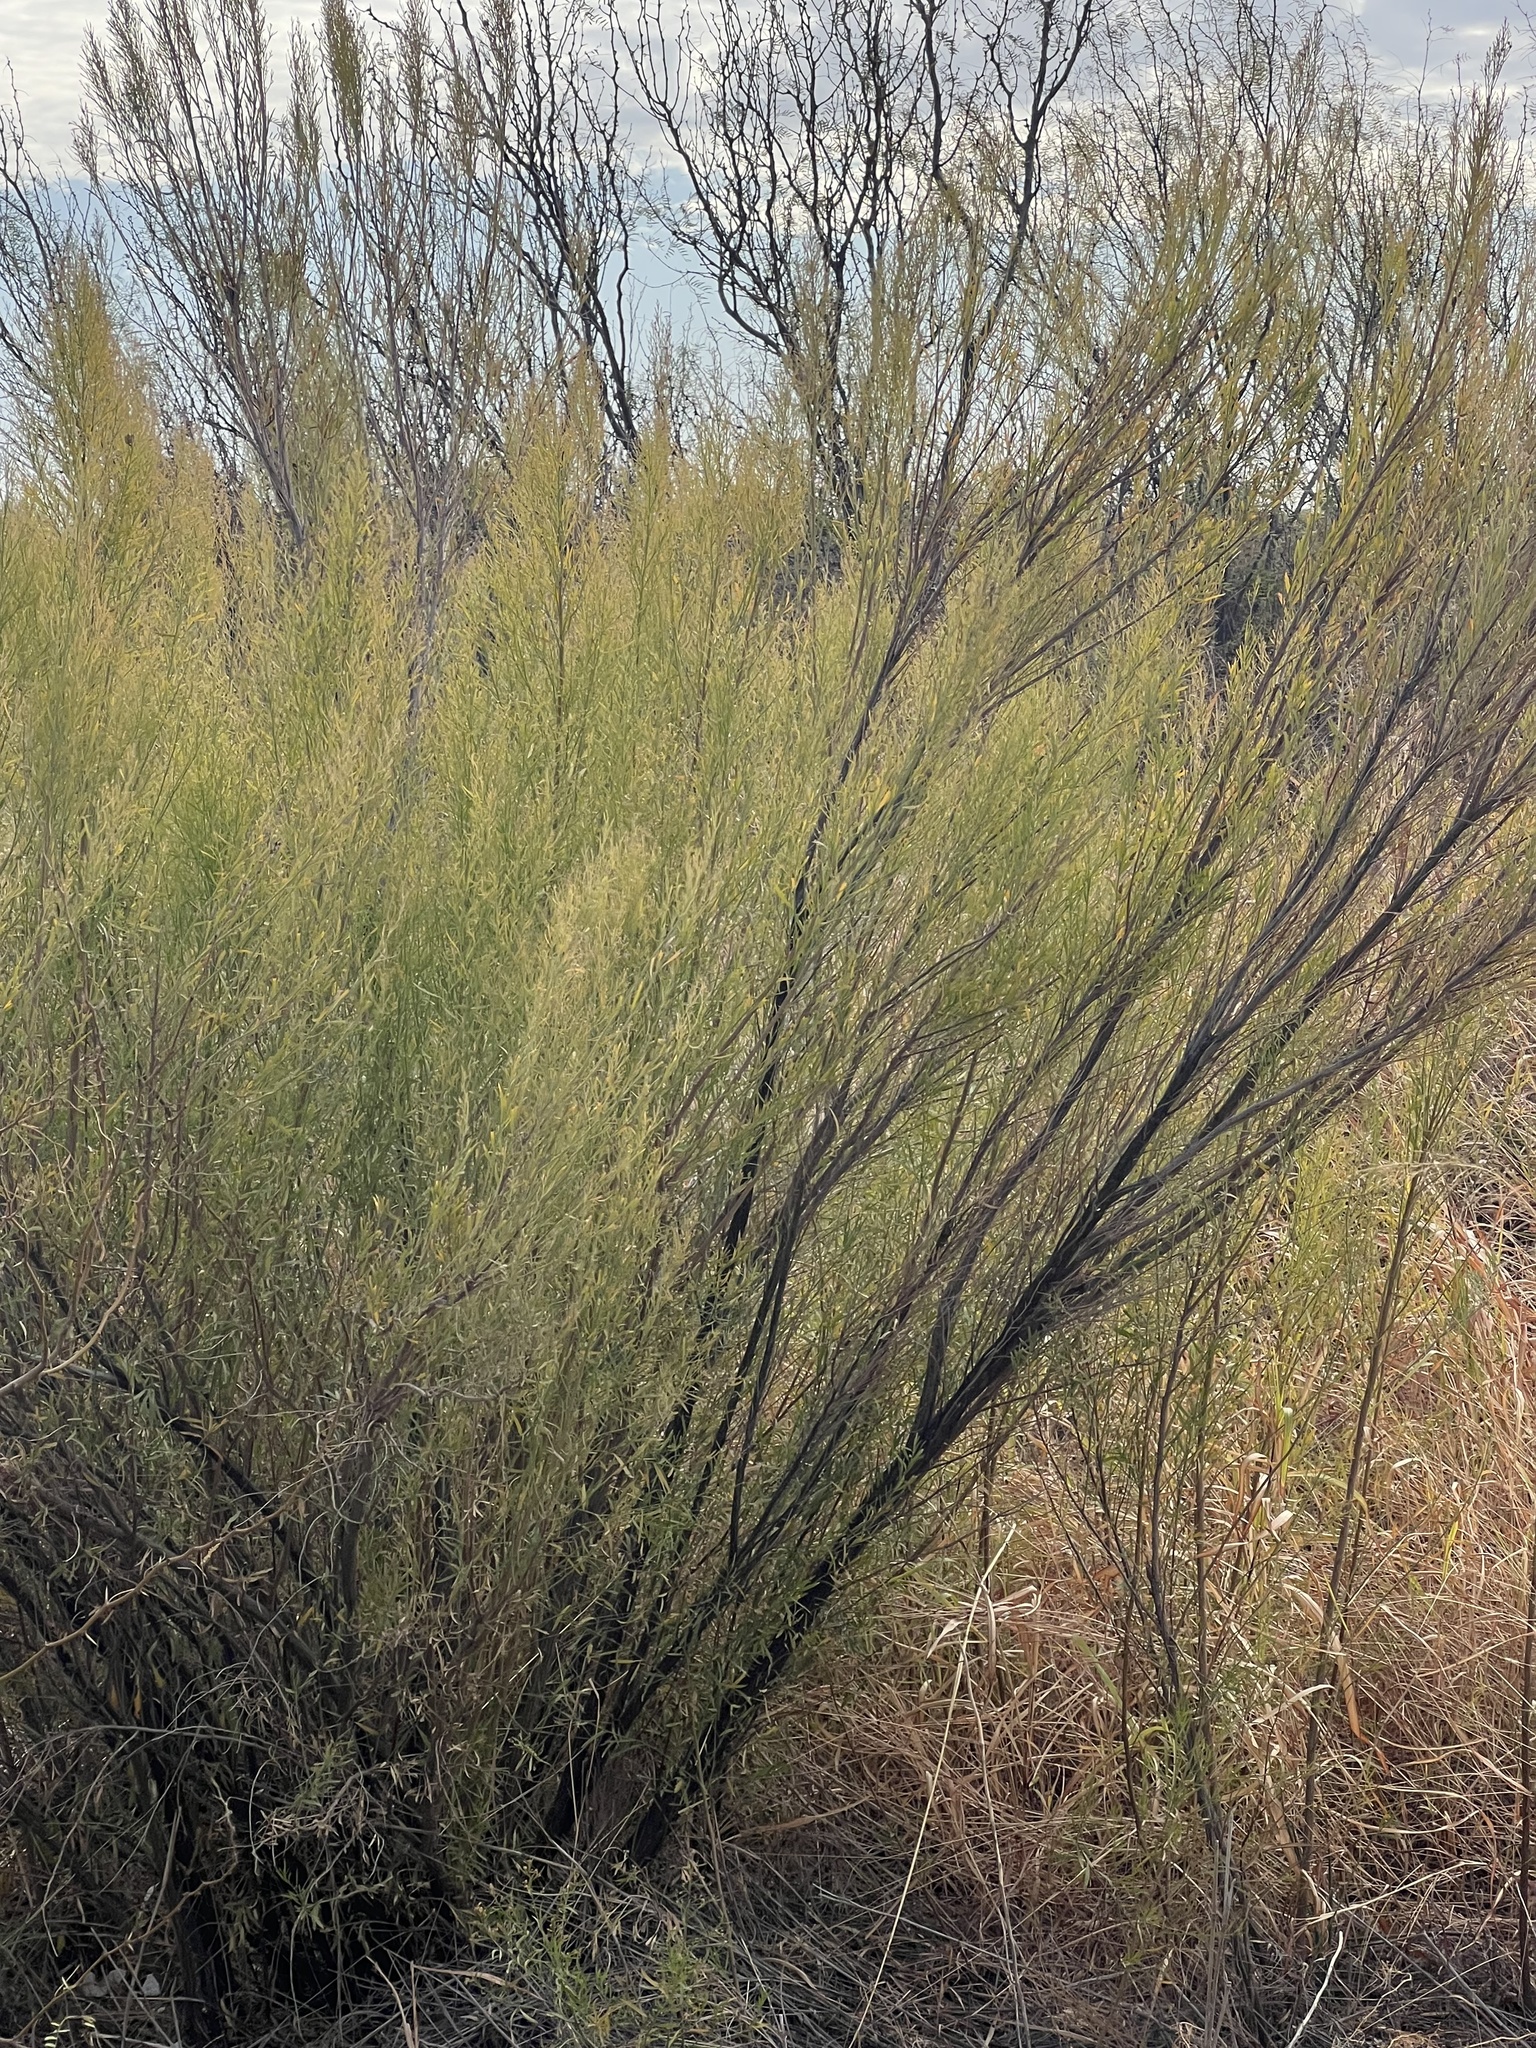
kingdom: Plantae
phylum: Tracheophyta
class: Magnoliopsida
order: Asterales
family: Asteraceae
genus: Baccharis
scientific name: Baccharis neglecta
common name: Roosevelt-weed
